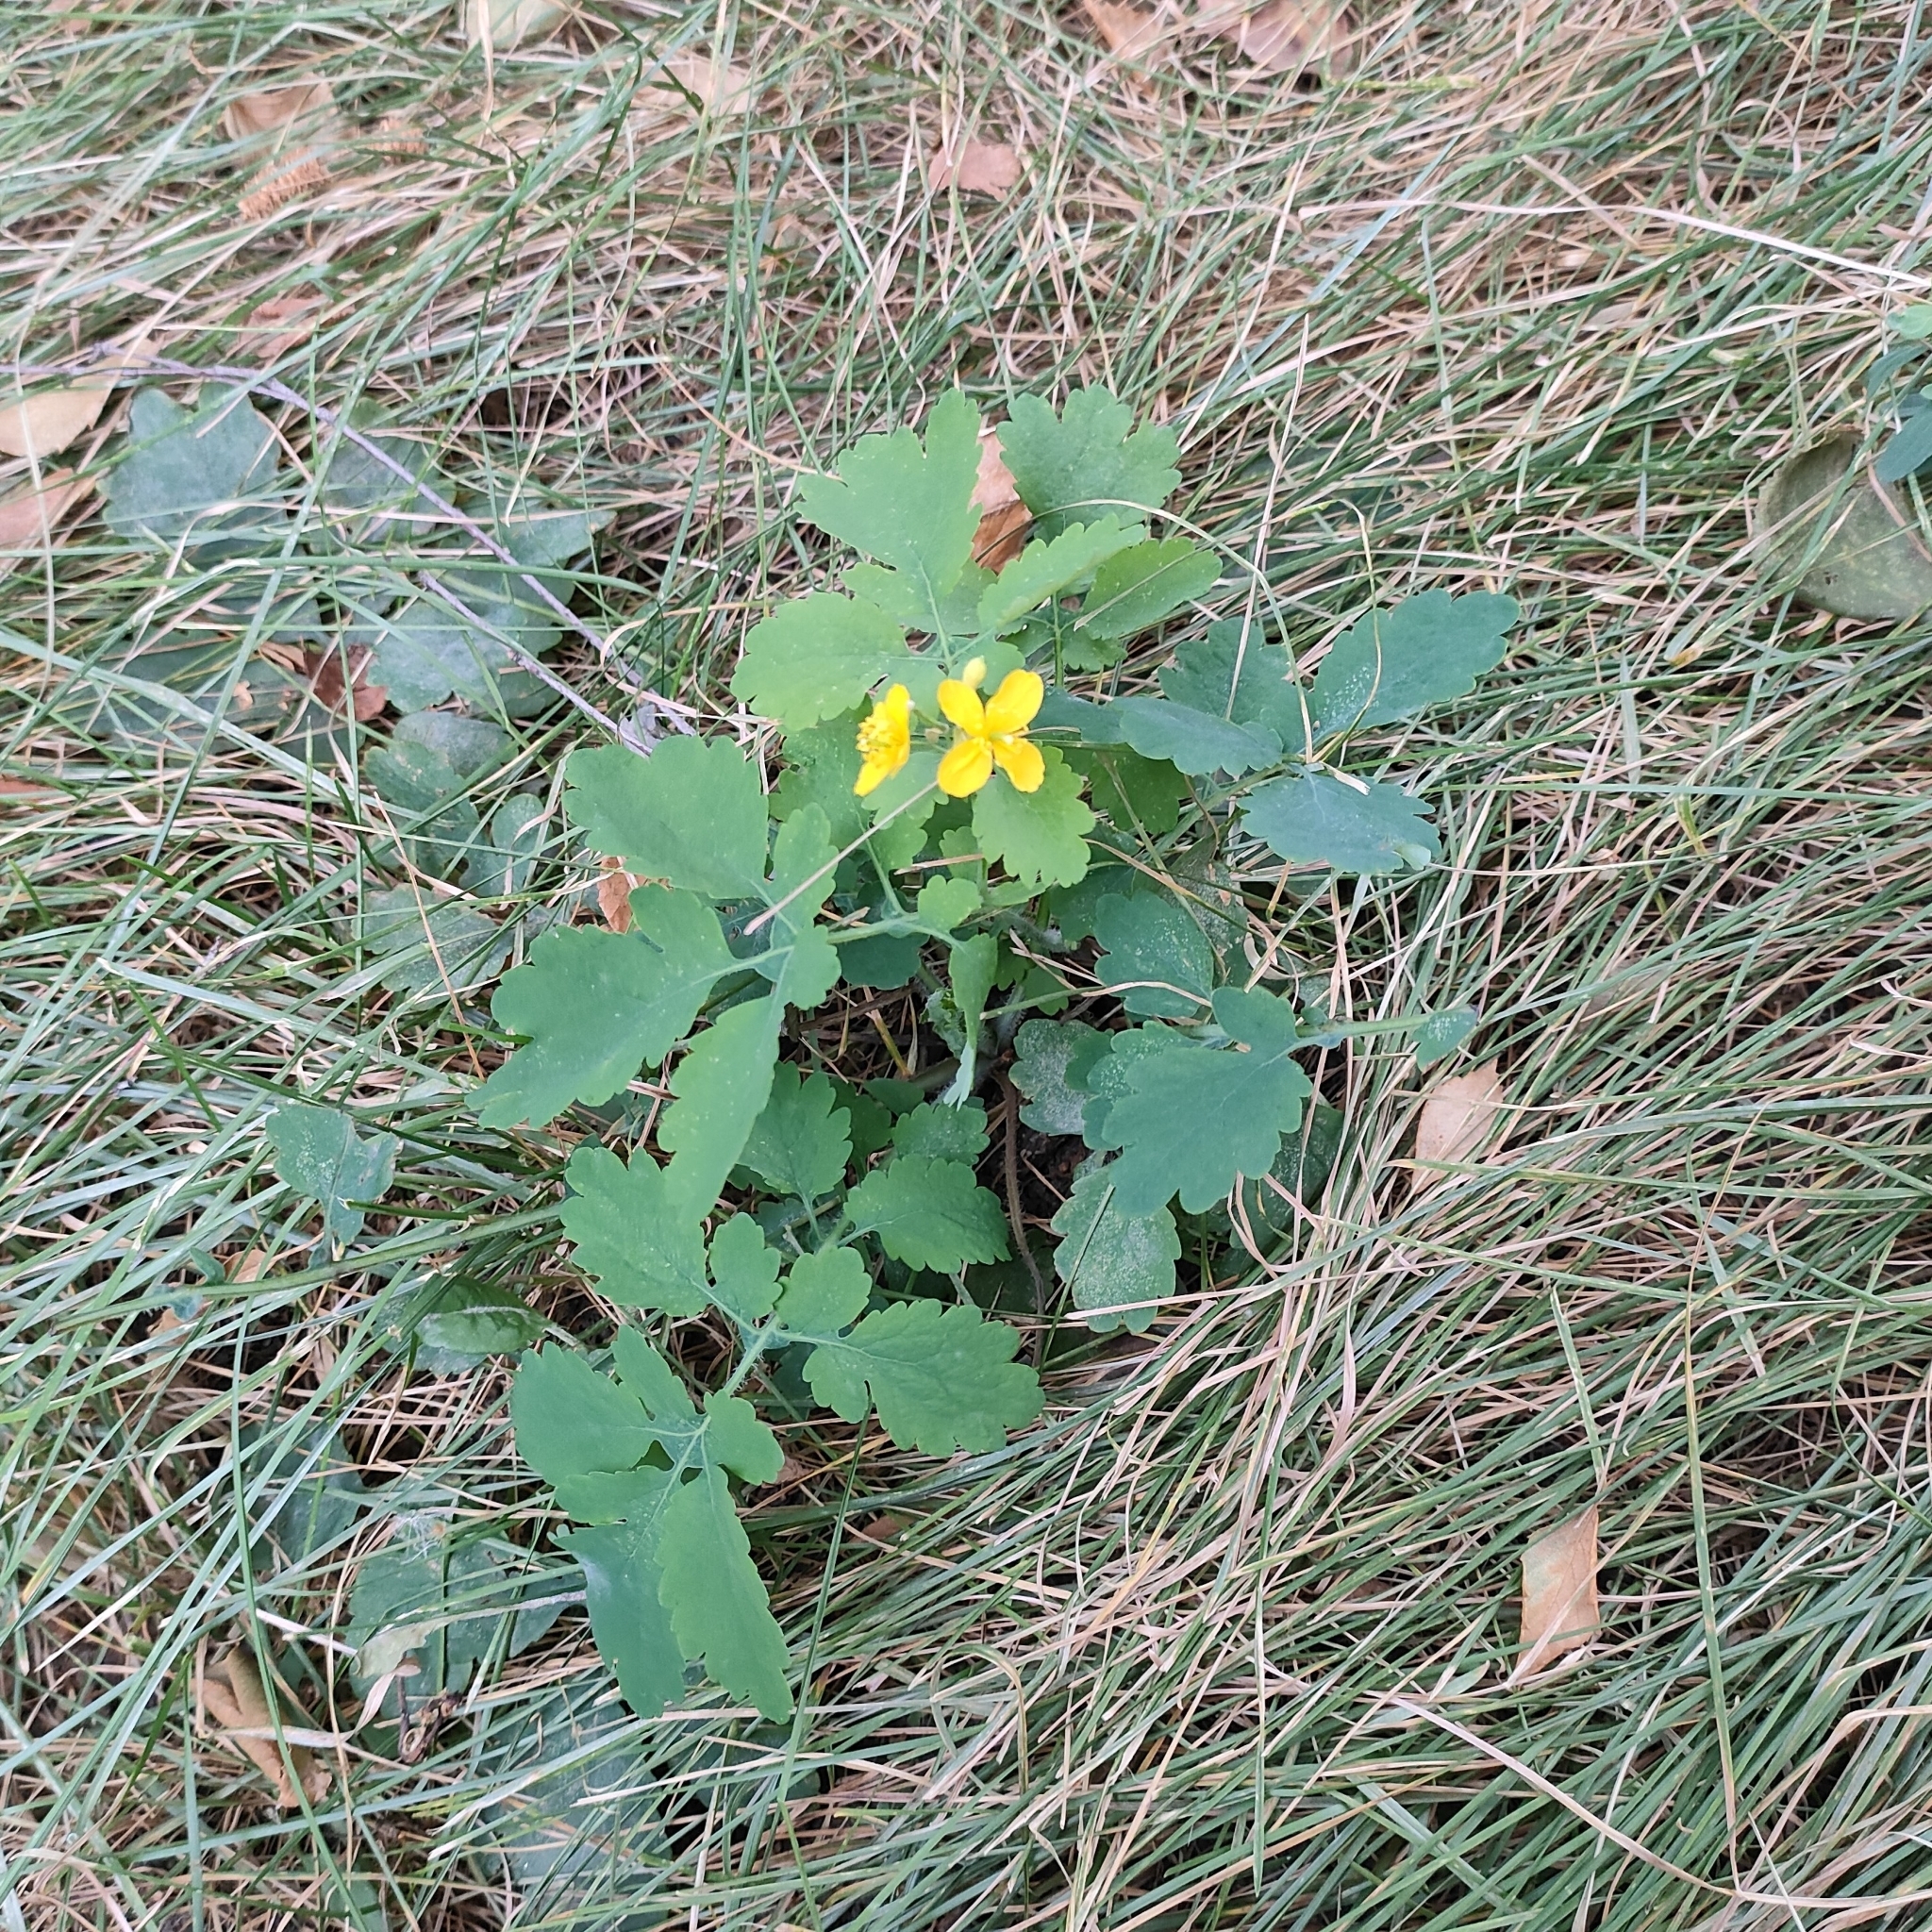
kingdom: Plantae
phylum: Tracheophyta
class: Magnoliopsida
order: Ranunculales
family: Papaveraceae
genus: Chelidonium
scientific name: Chelidonium majus
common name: Greater celandine
